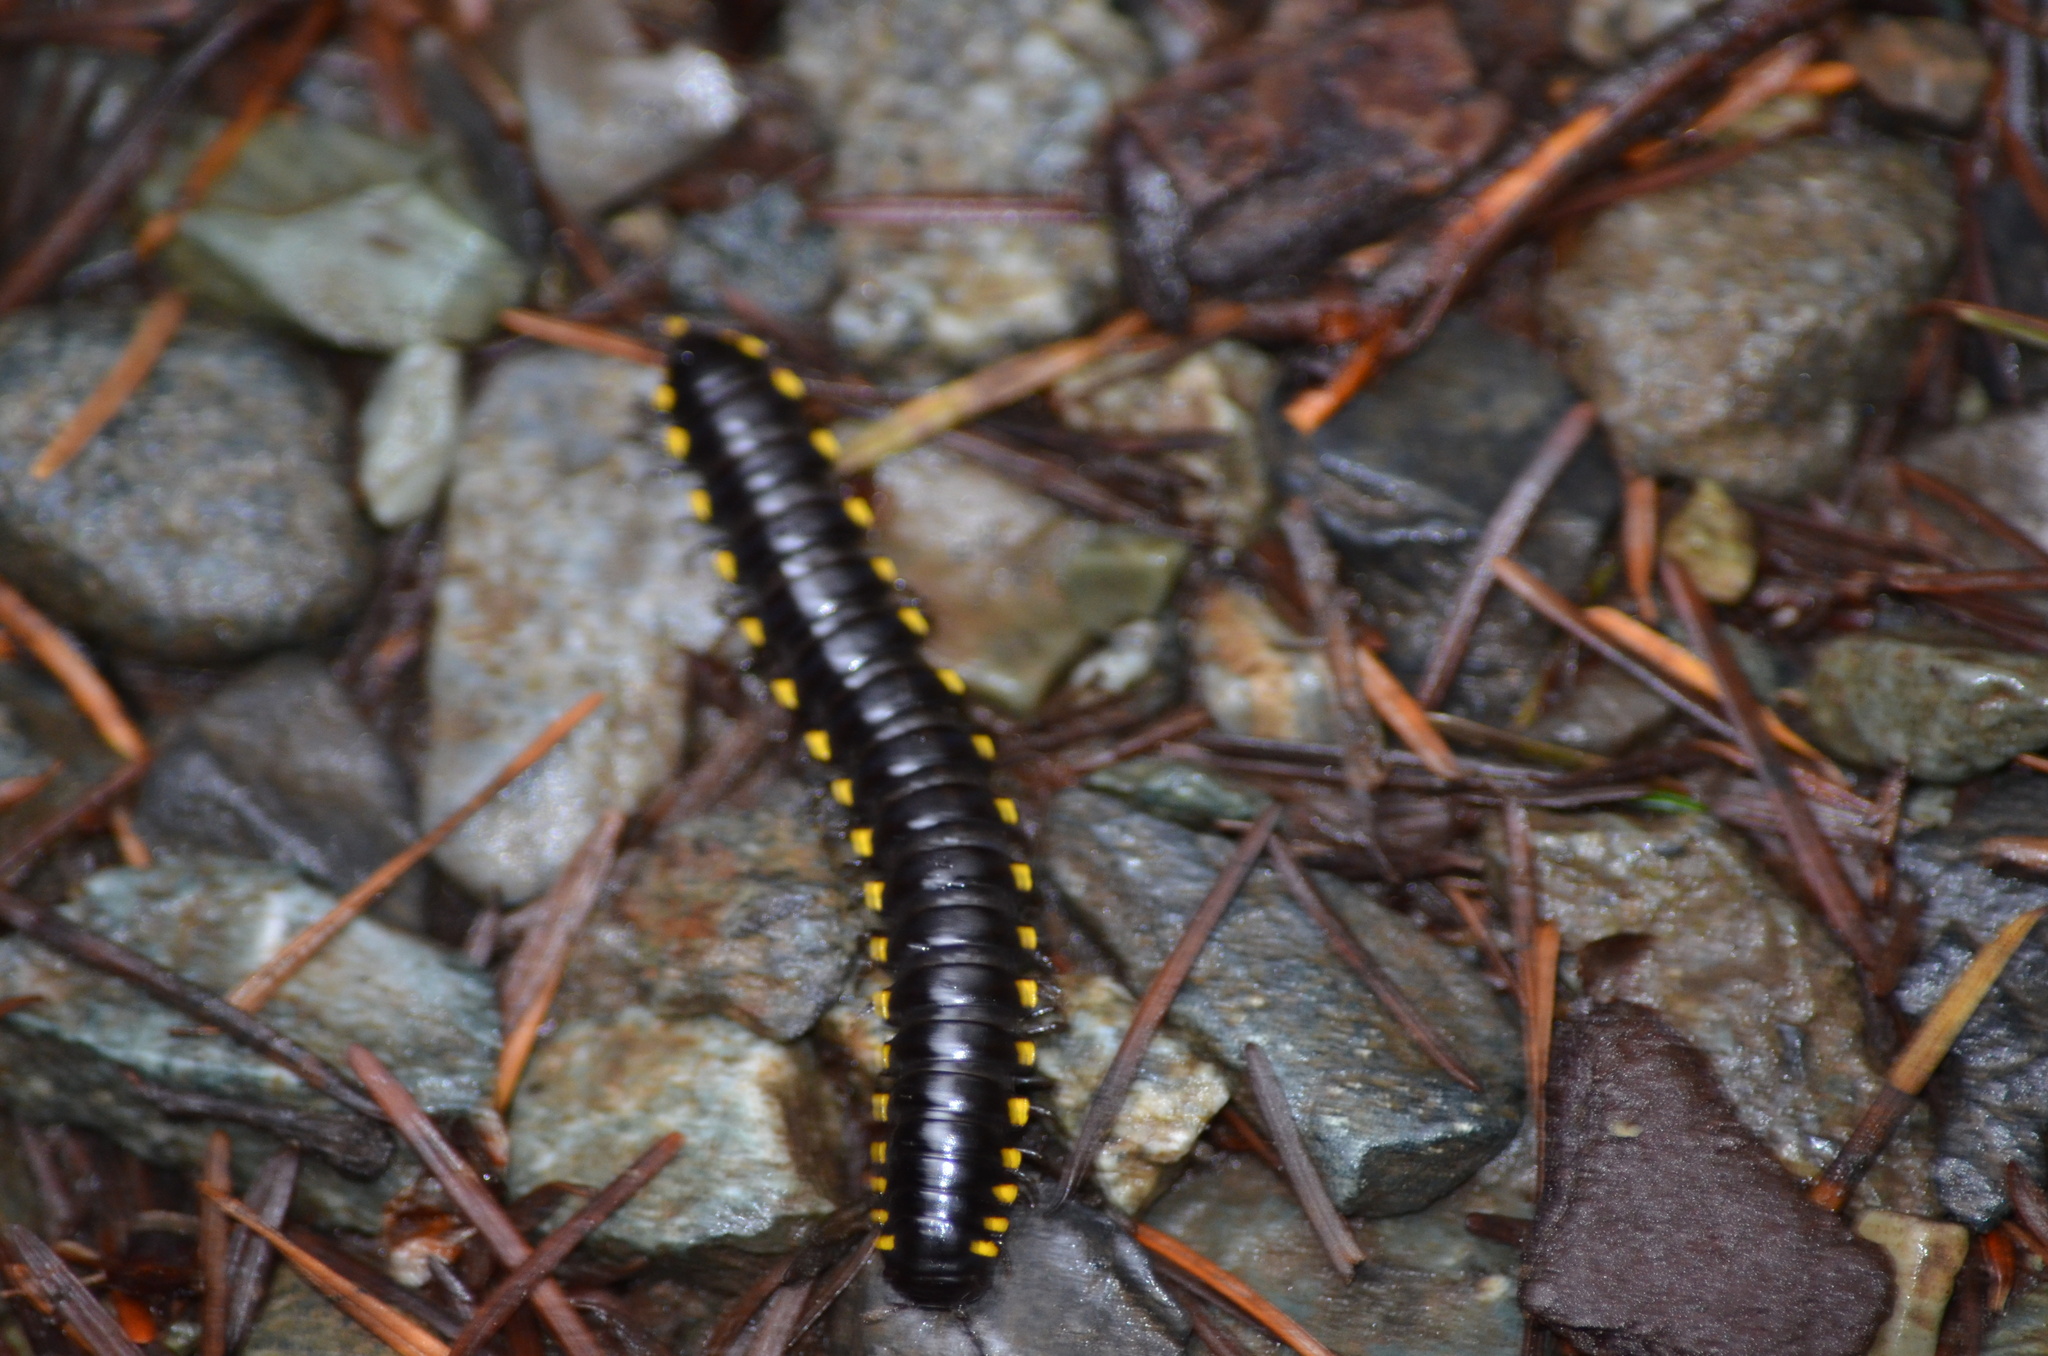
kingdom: Animalia
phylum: Arthropoda
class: Diplopoda
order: Polydesmida
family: Xystodesmidae
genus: Harpaphe
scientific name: Harpaphe haydeniana
